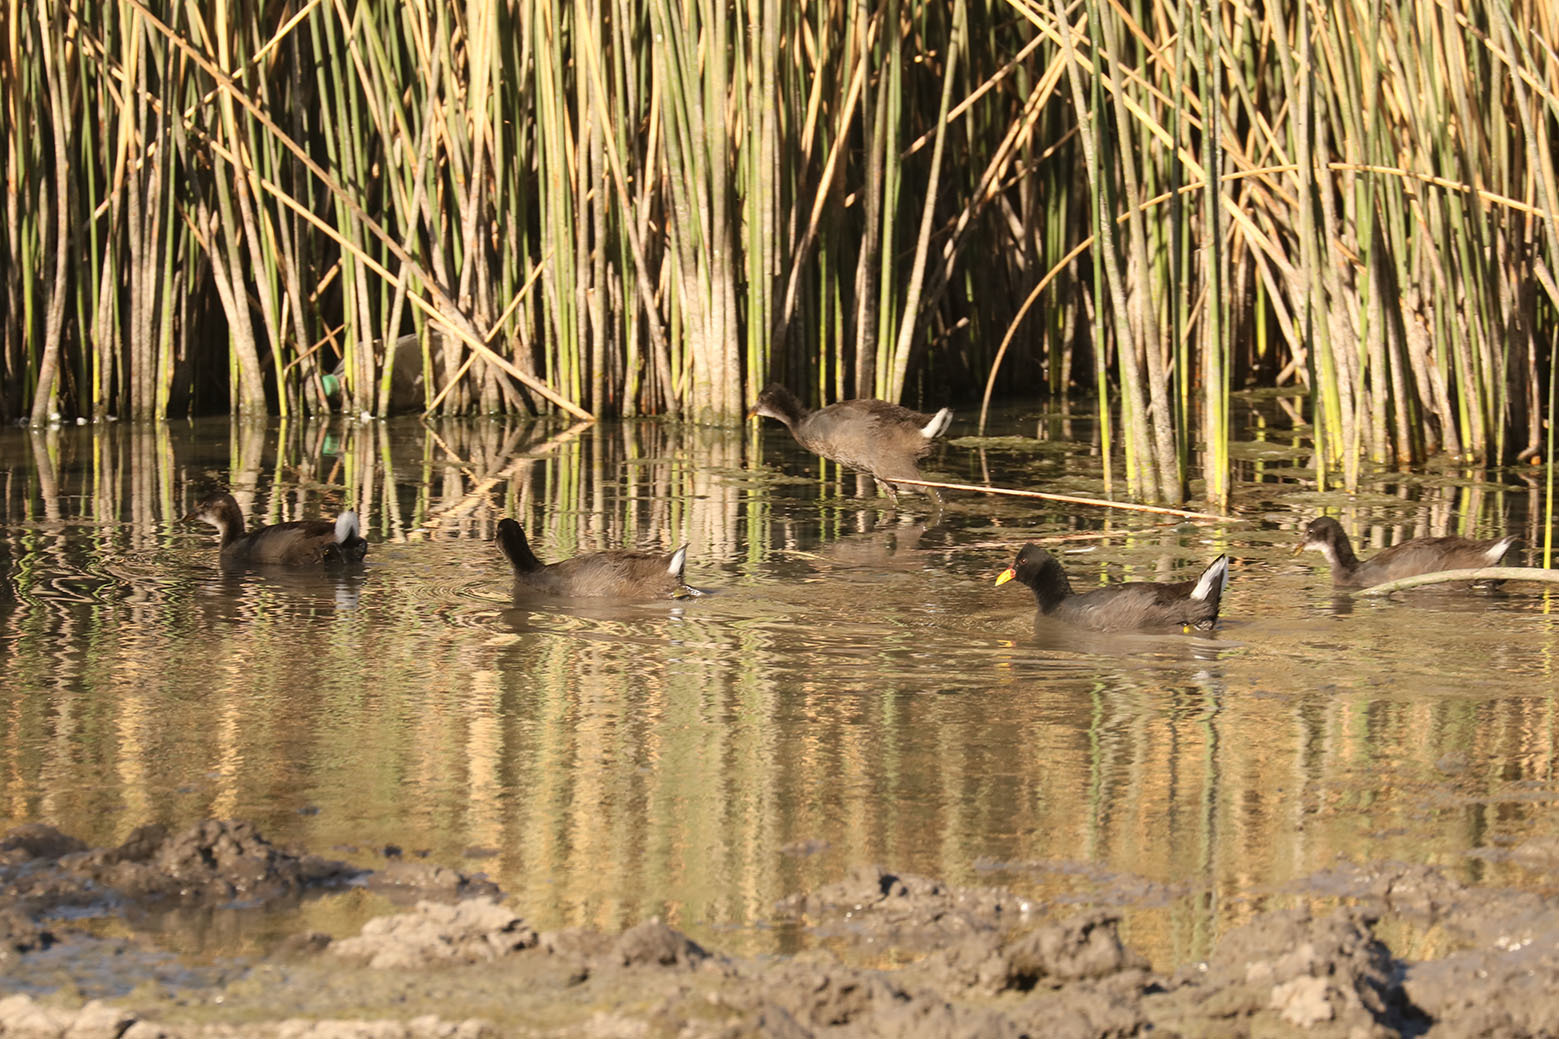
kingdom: Animalia
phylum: Chordata
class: Aves
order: Gruiformes
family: Rallidae
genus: Fulica
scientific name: Fulica rufifrons
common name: Red-fronted coot
